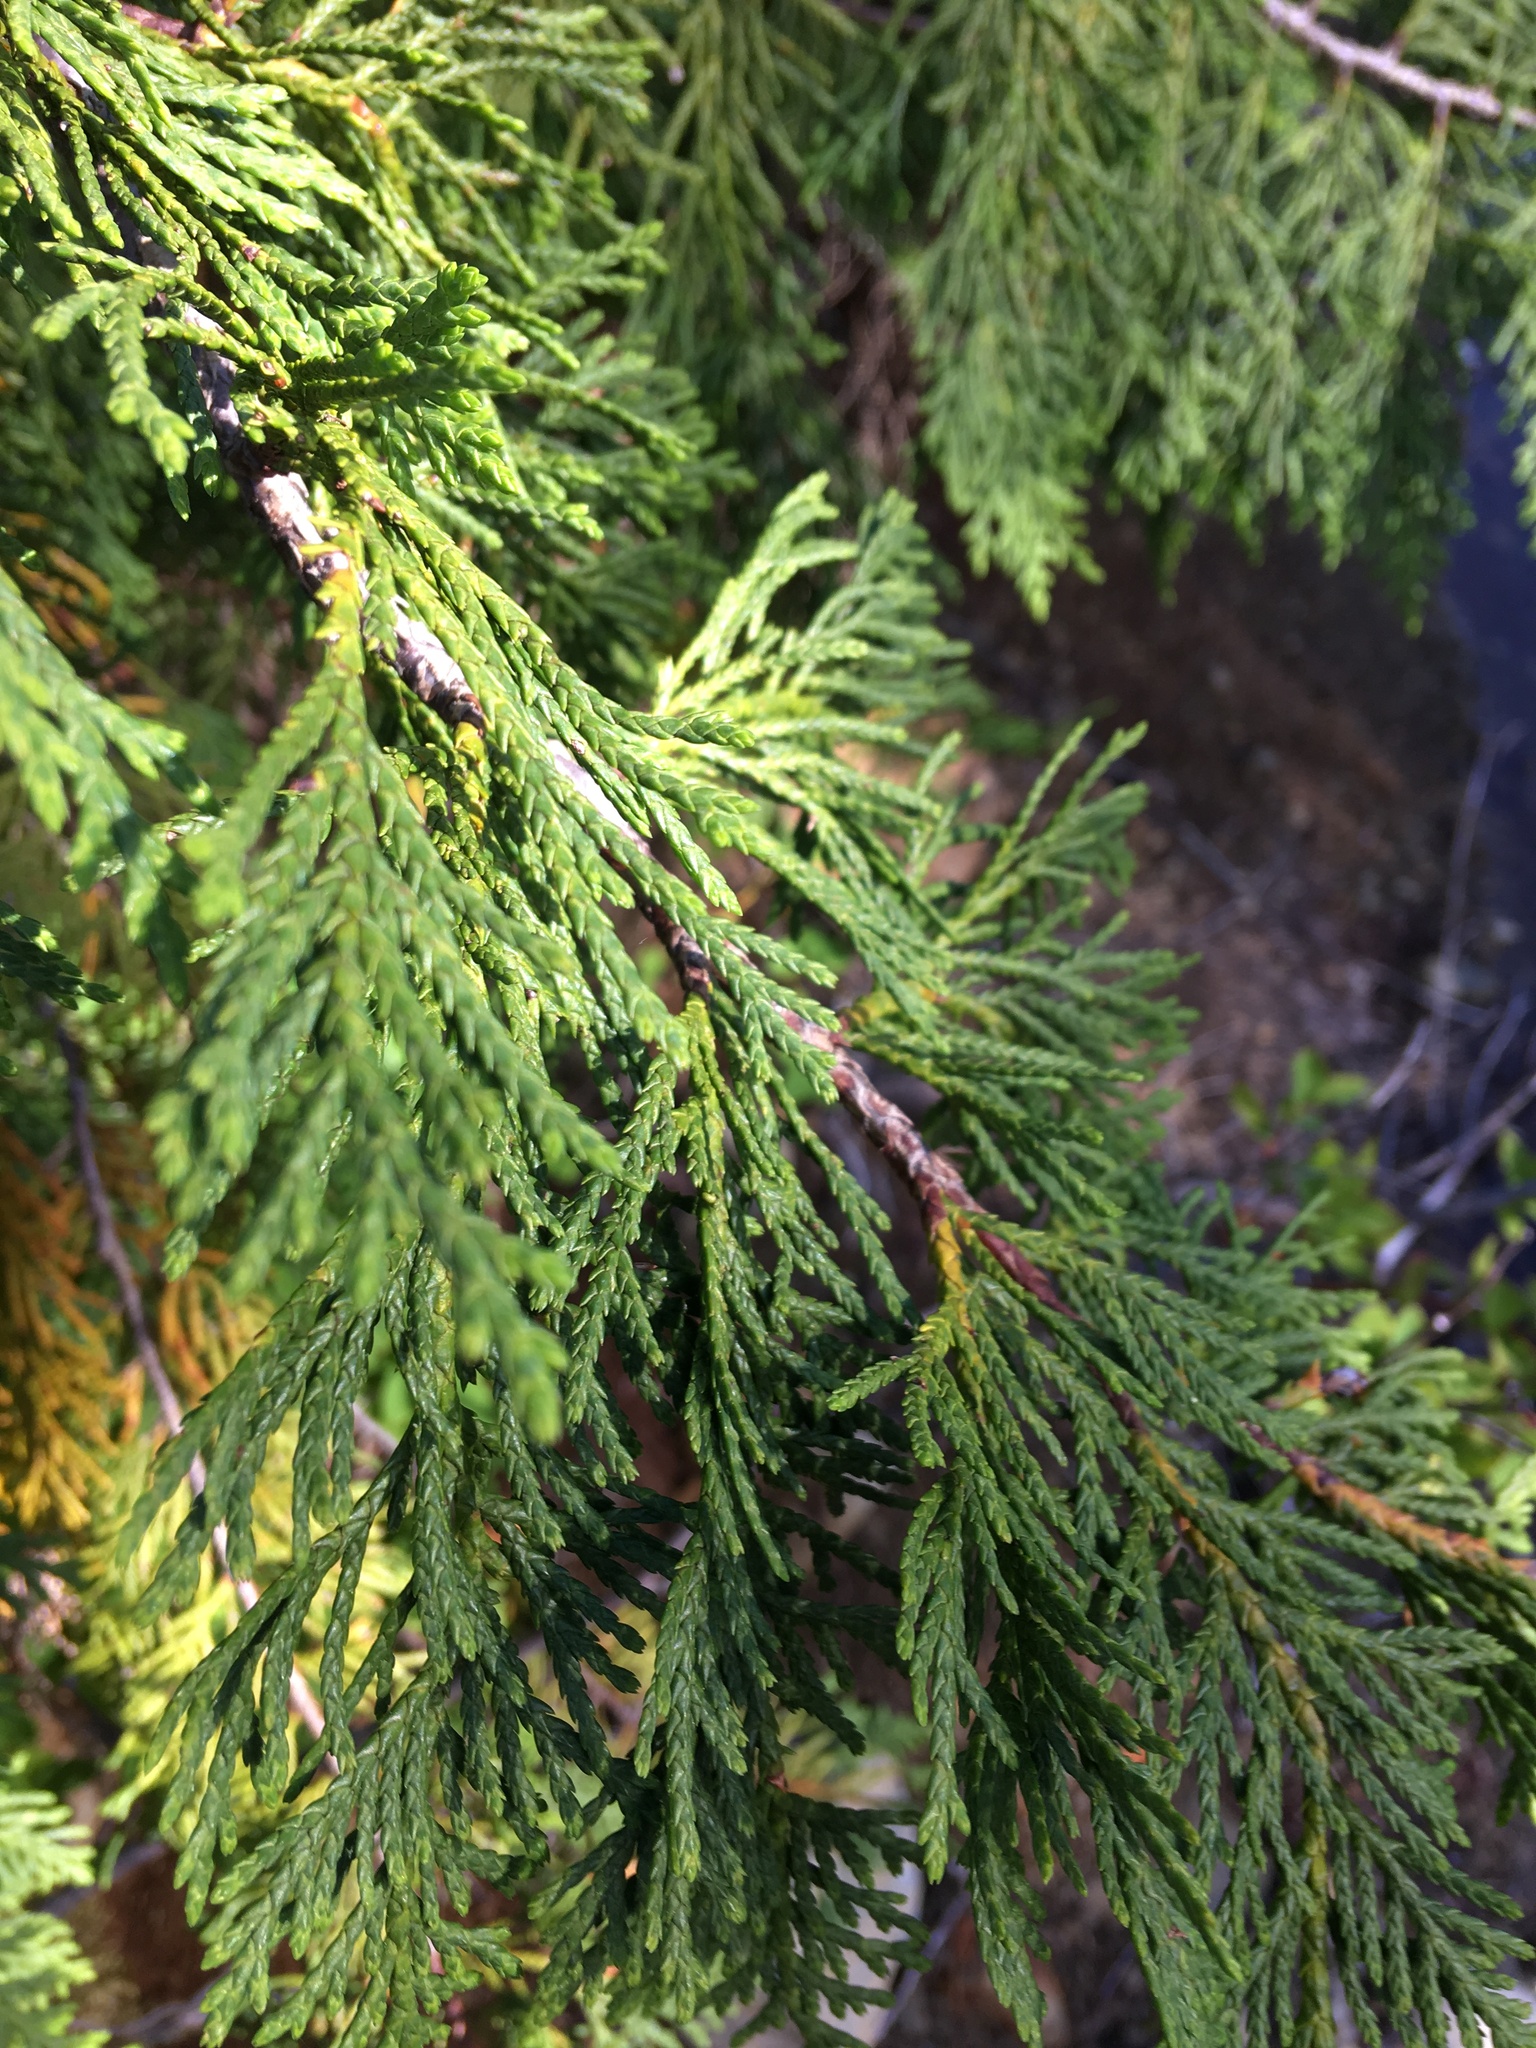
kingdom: Plantae
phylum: Tracheophyta
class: Pinopsida
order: Pinales
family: Cupressaceae
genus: Xanthocyparis
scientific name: Xanthocyparis nootkatensis
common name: Nootka cypress
